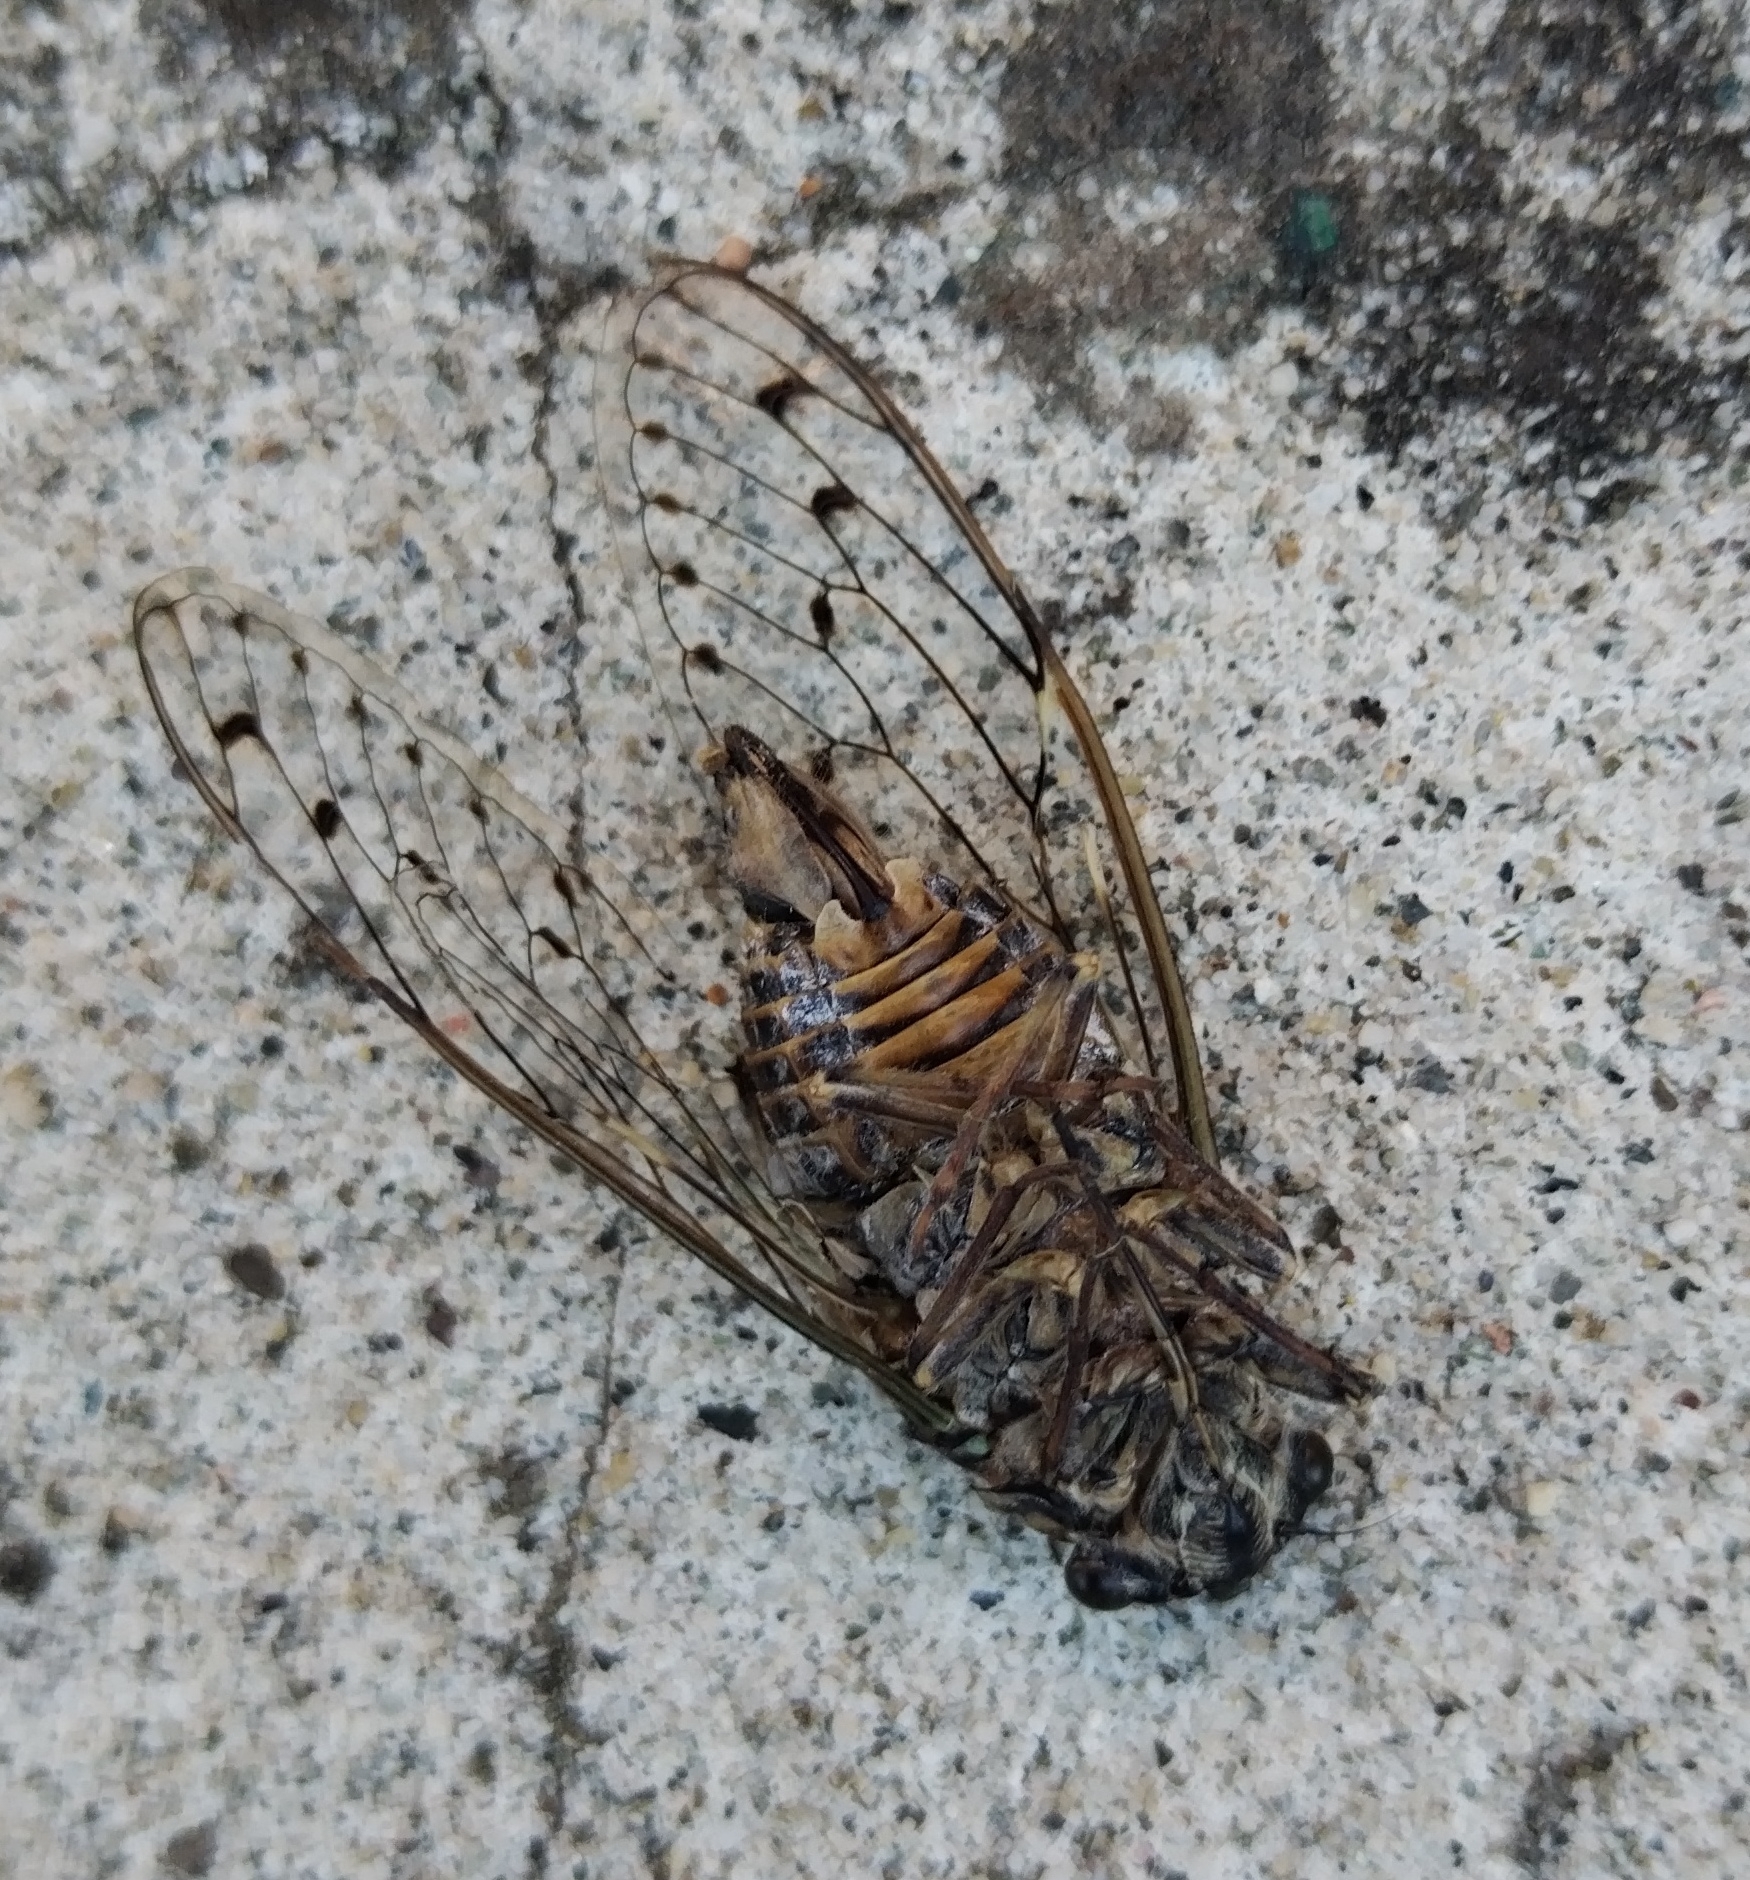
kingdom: Animalia
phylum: Arthropoda
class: Insecta
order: Hemiptera
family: Cicadidae
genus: Cicada
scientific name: Cicada orni
